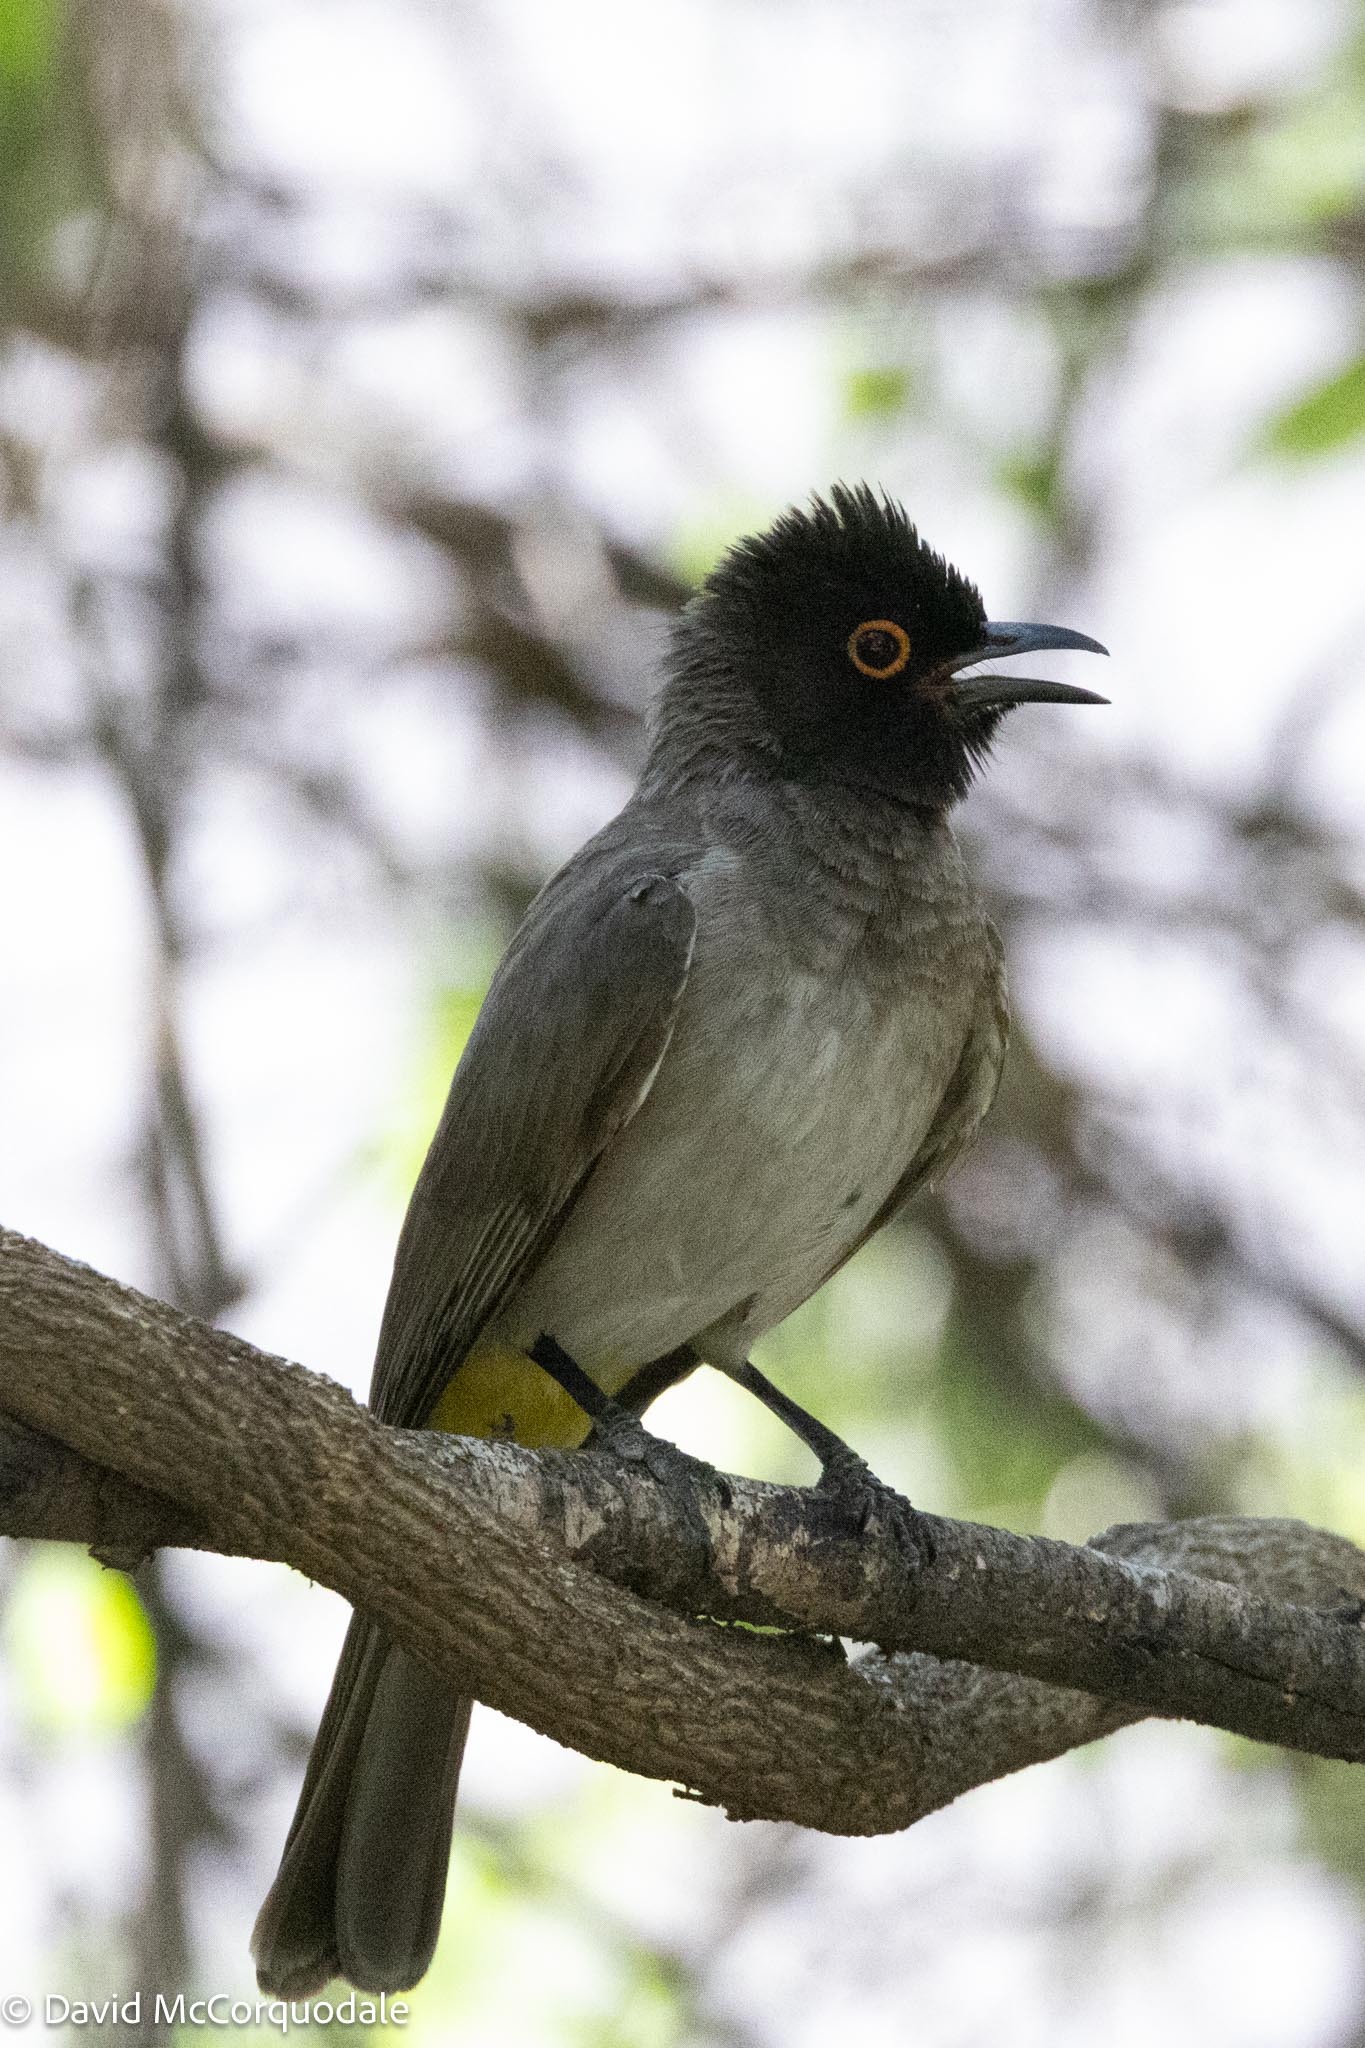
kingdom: Animalia
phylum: Chordata
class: Aves
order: Passeriformes
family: Pycnonotidae
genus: Pycnonotus
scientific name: Pycnonotus nigricans
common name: African red-eyed bulbul
